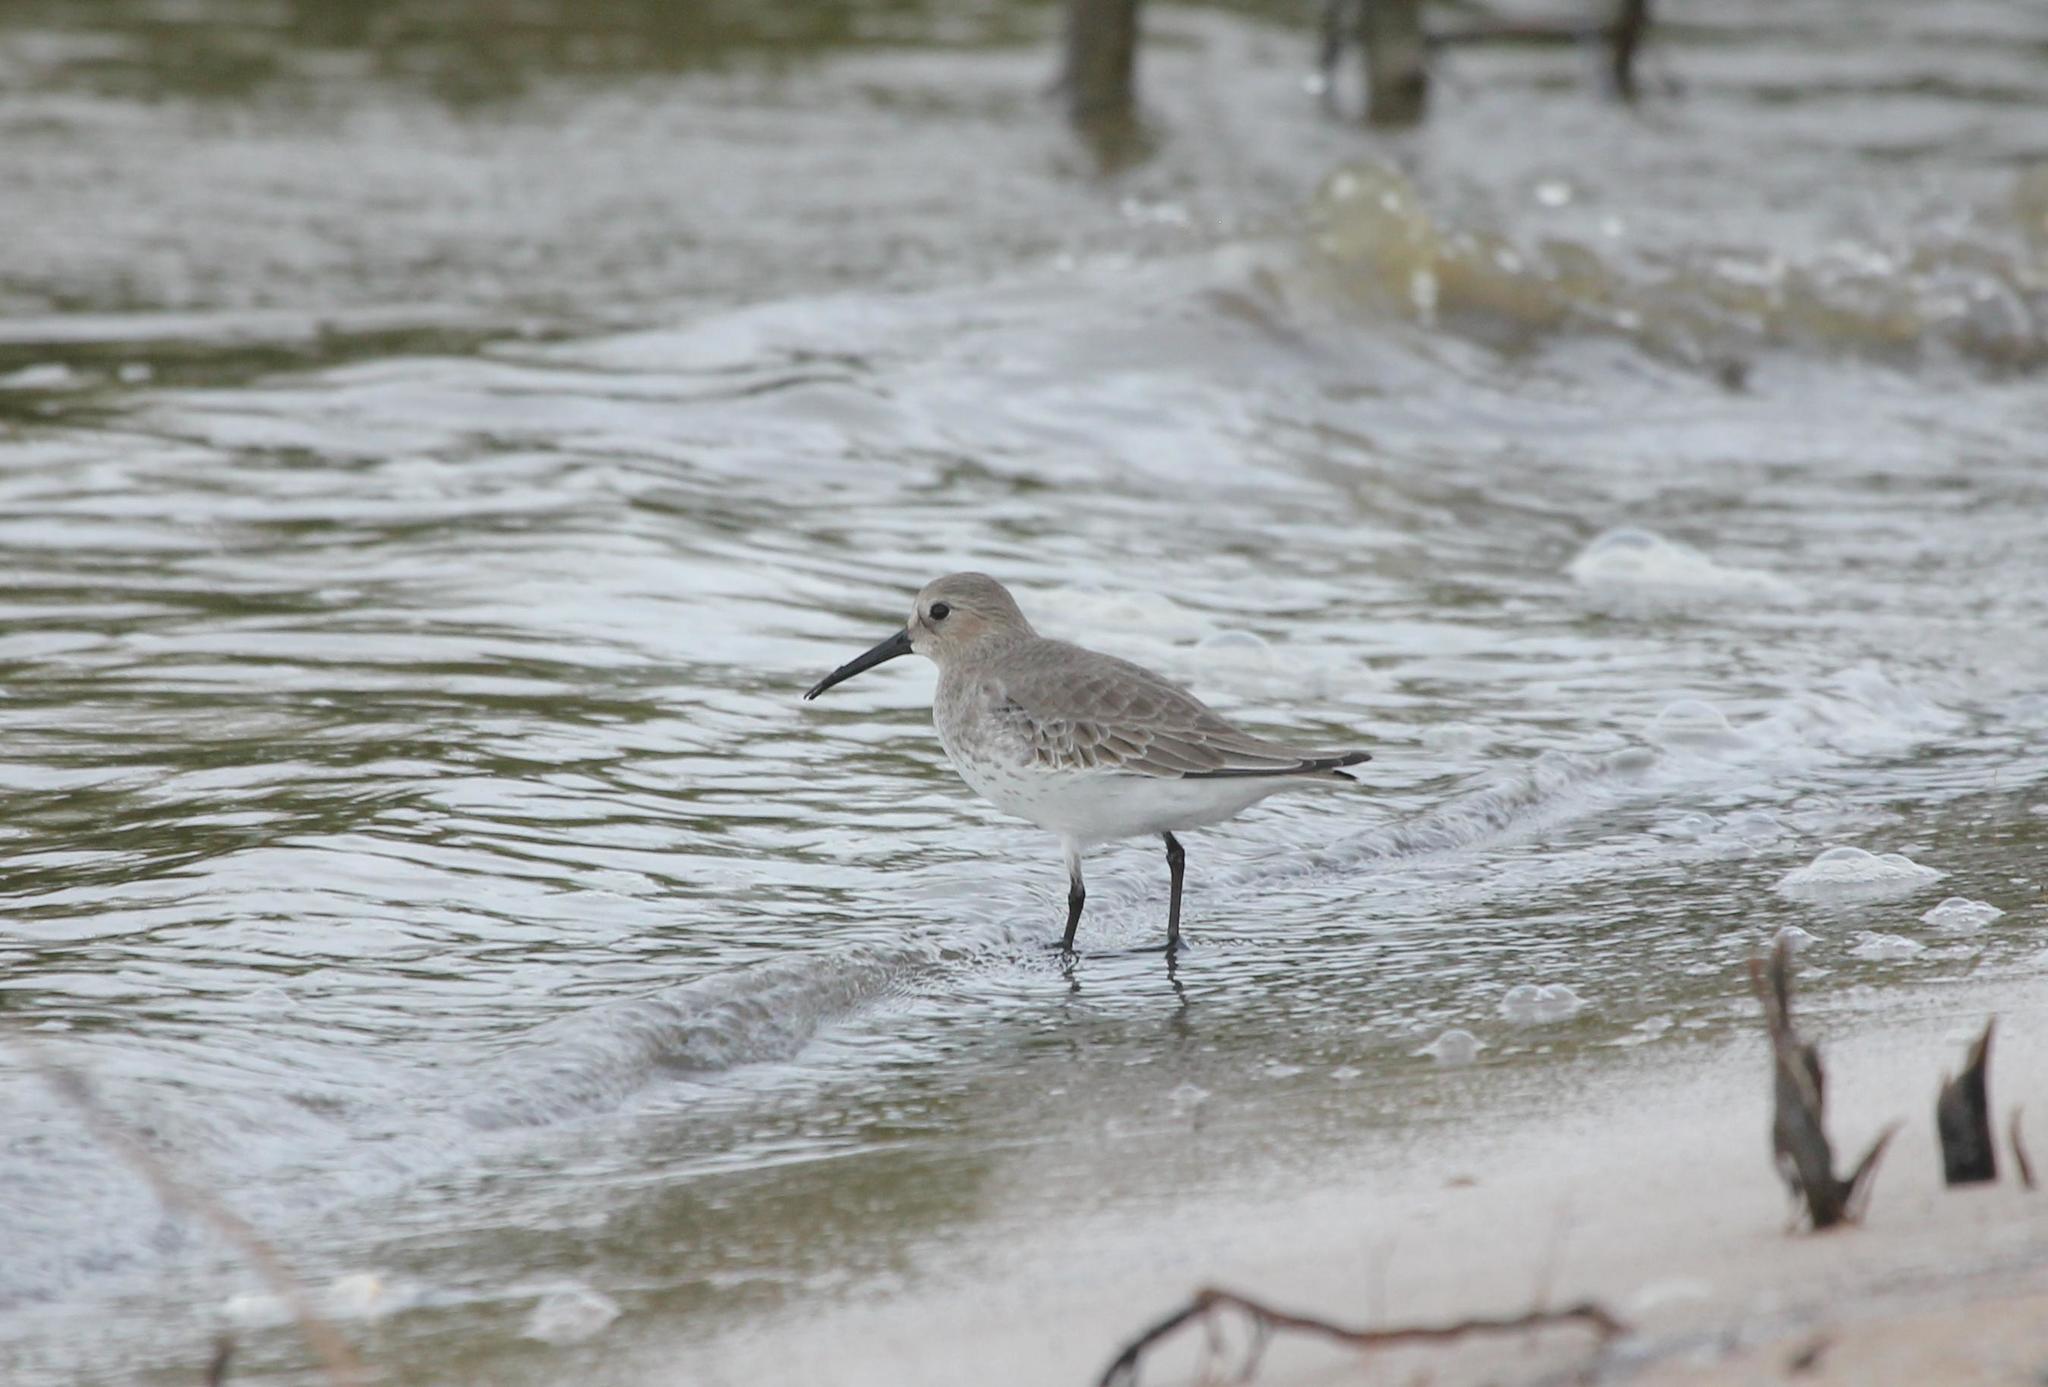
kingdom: Animalia
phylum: Chordata
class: Aves
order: Charadriiformes
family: Scolopacidae
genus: Calidris
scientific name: Calidris alpina
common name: Dunlin
